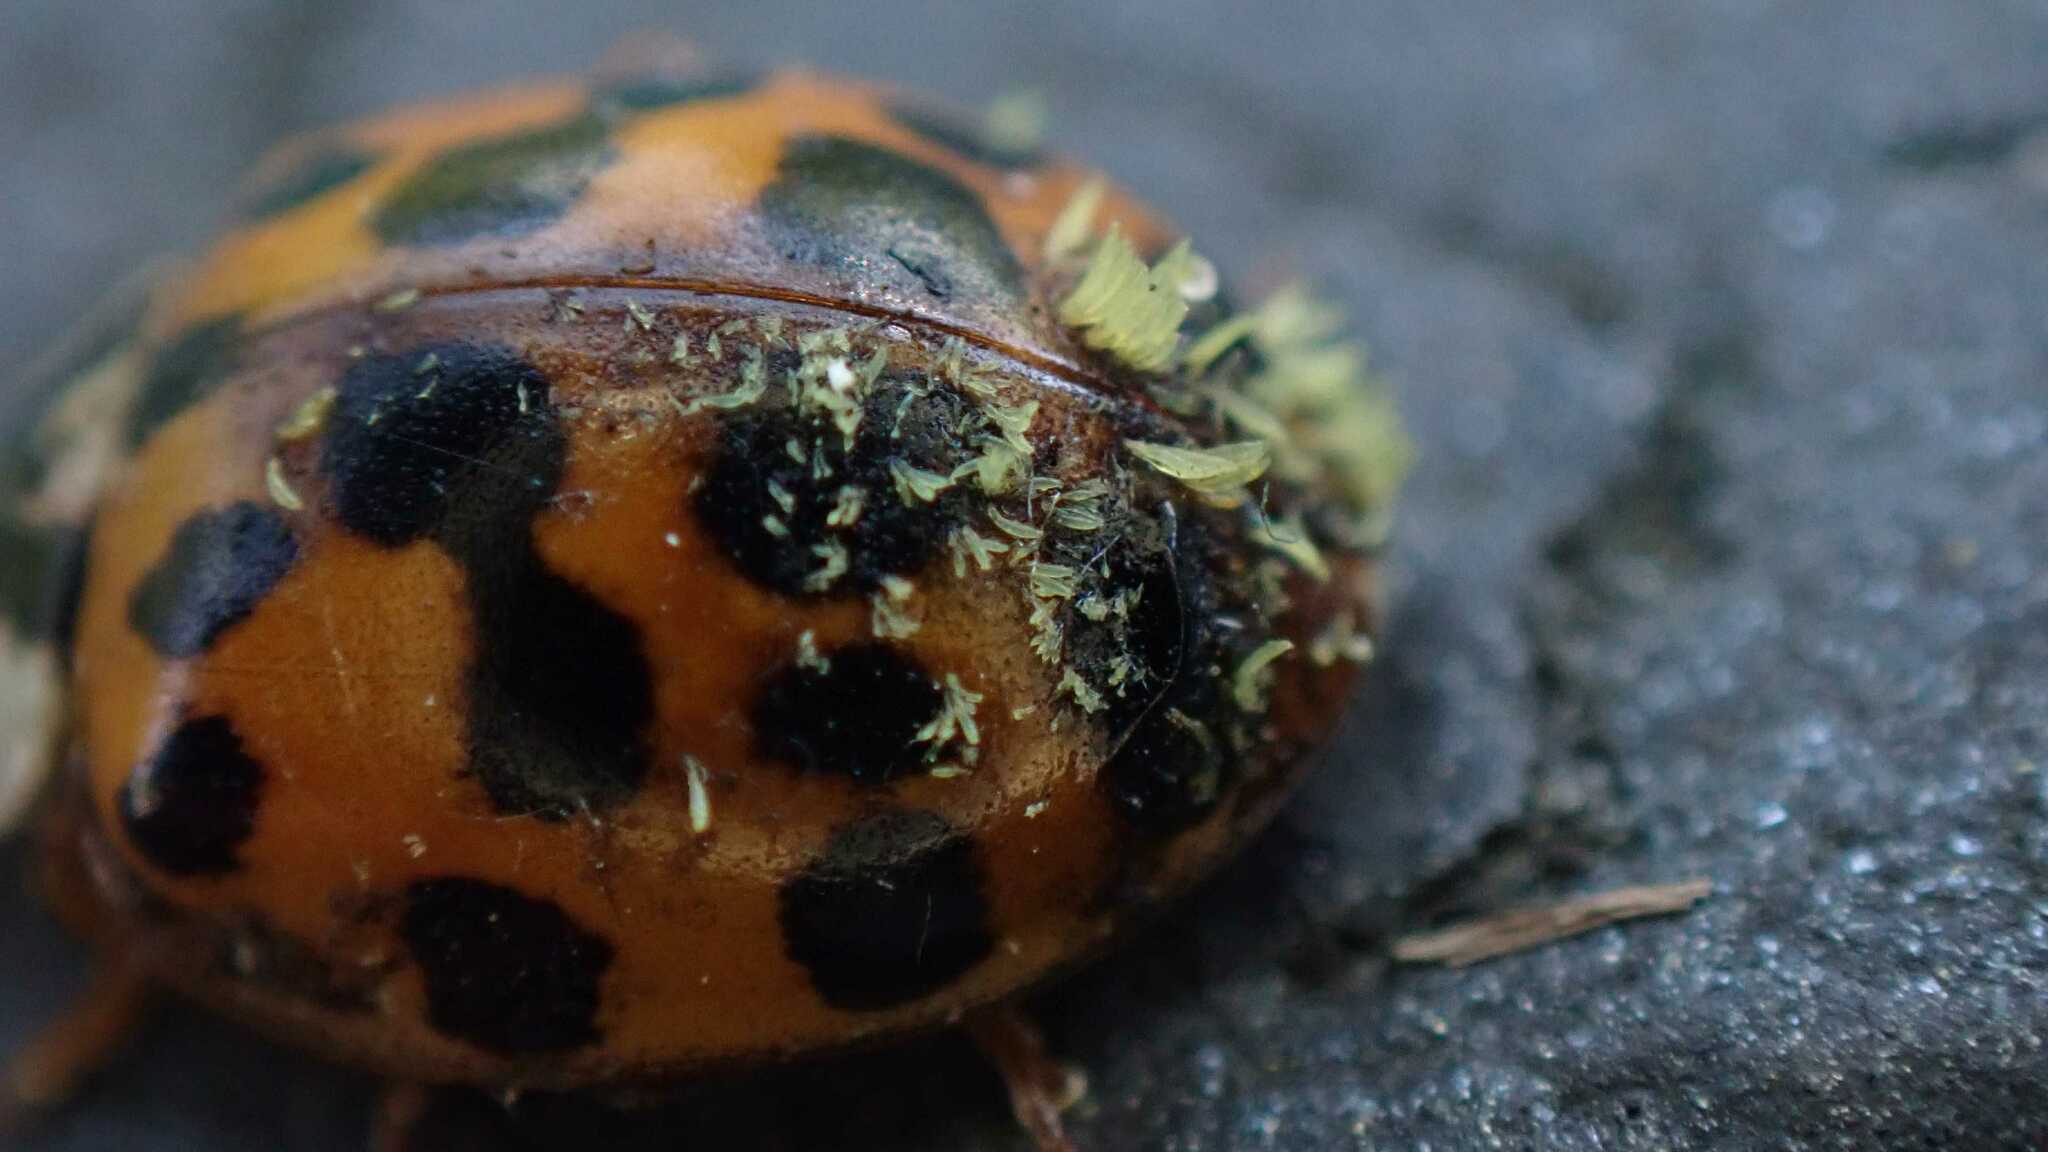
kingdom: Fungi
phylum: Ascomycota
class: Laboulbeniomycetes
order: Laboulbeniales
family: Laboulbeniaceae
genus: Hesperomyces
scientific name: Hesperomyces harmoniae
